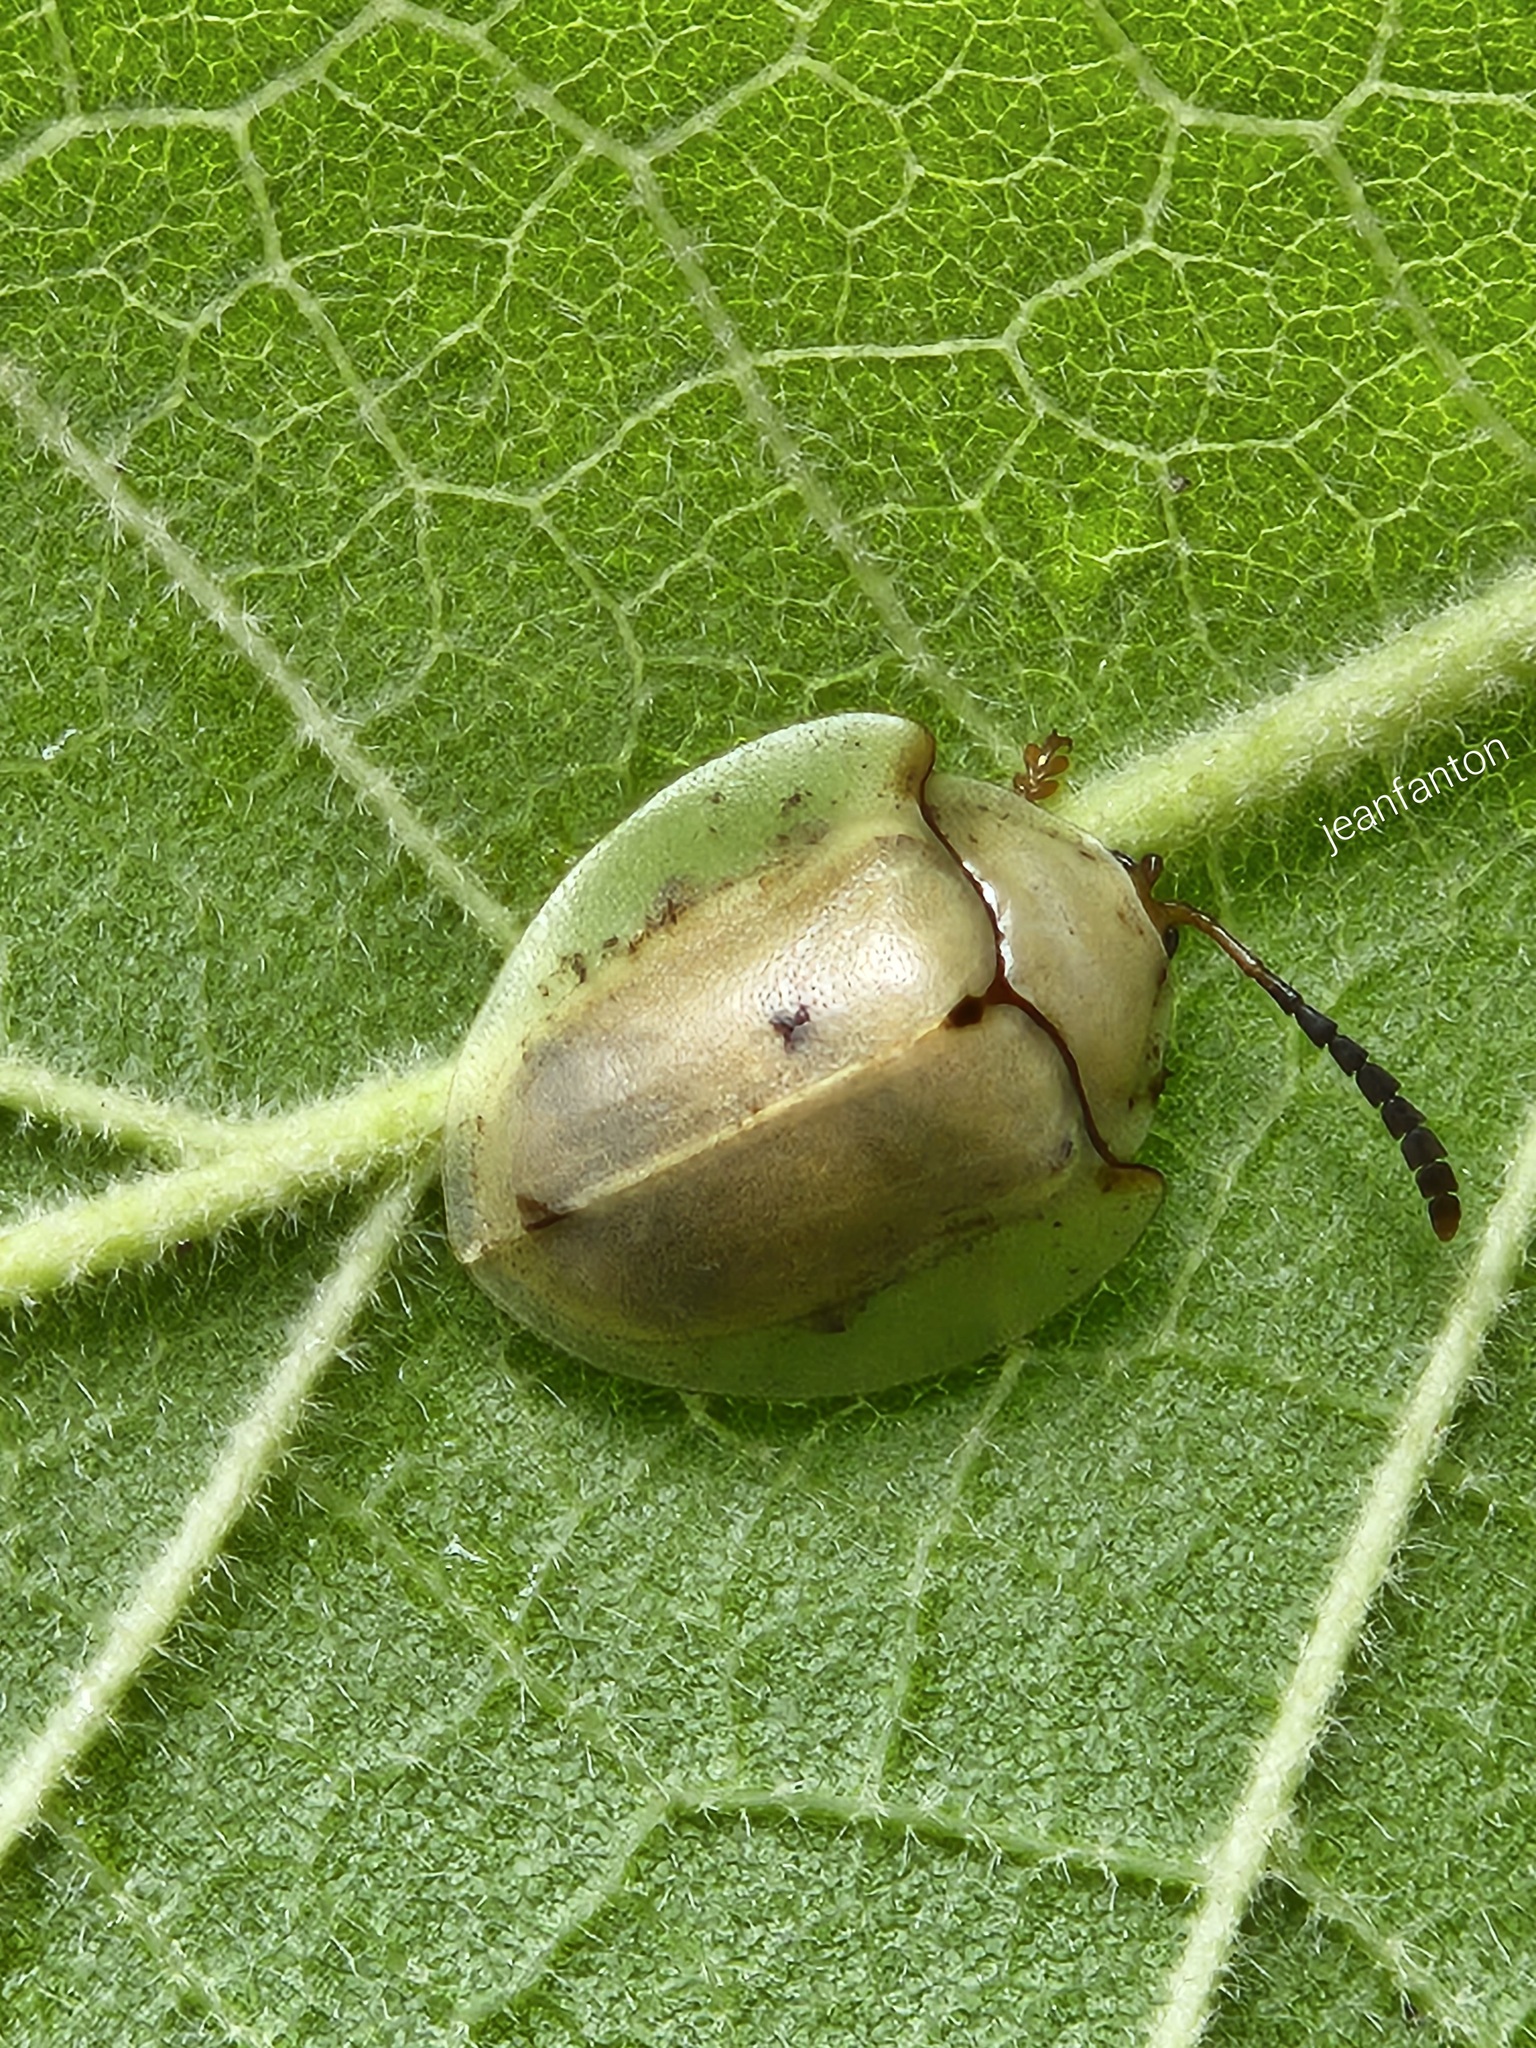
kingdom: Animalia
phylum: Arthropoda
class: Insecta
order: Coleoptera
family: Chrysomelidae
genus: Paraselenis
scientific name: Paraselenis flava
